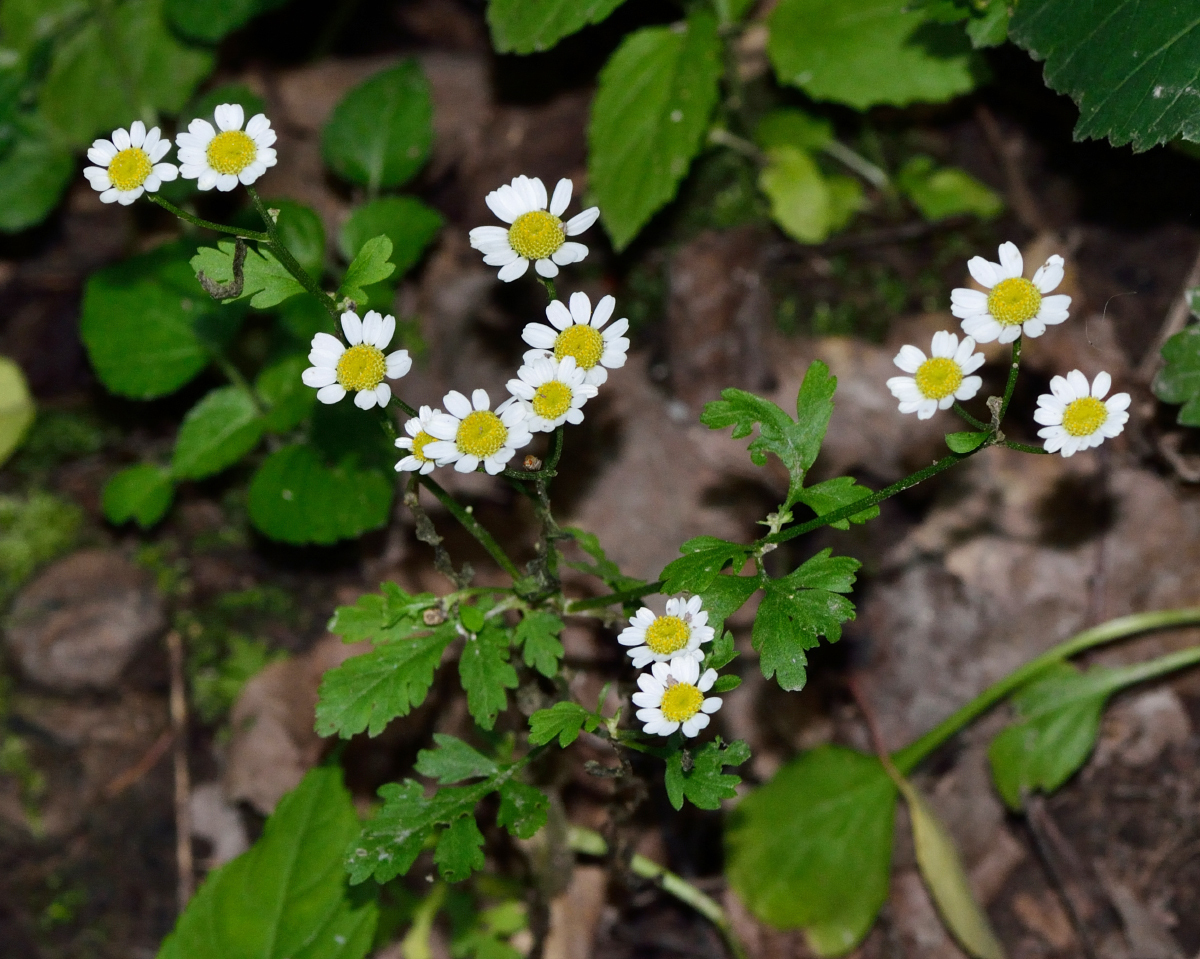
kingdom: Plantae
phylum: Tracheophyta
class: Magnoliopsida
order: Asterales
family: Asteraceae
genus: Tanacetum
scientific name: Tanacetum parthenium
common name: Feverfew
